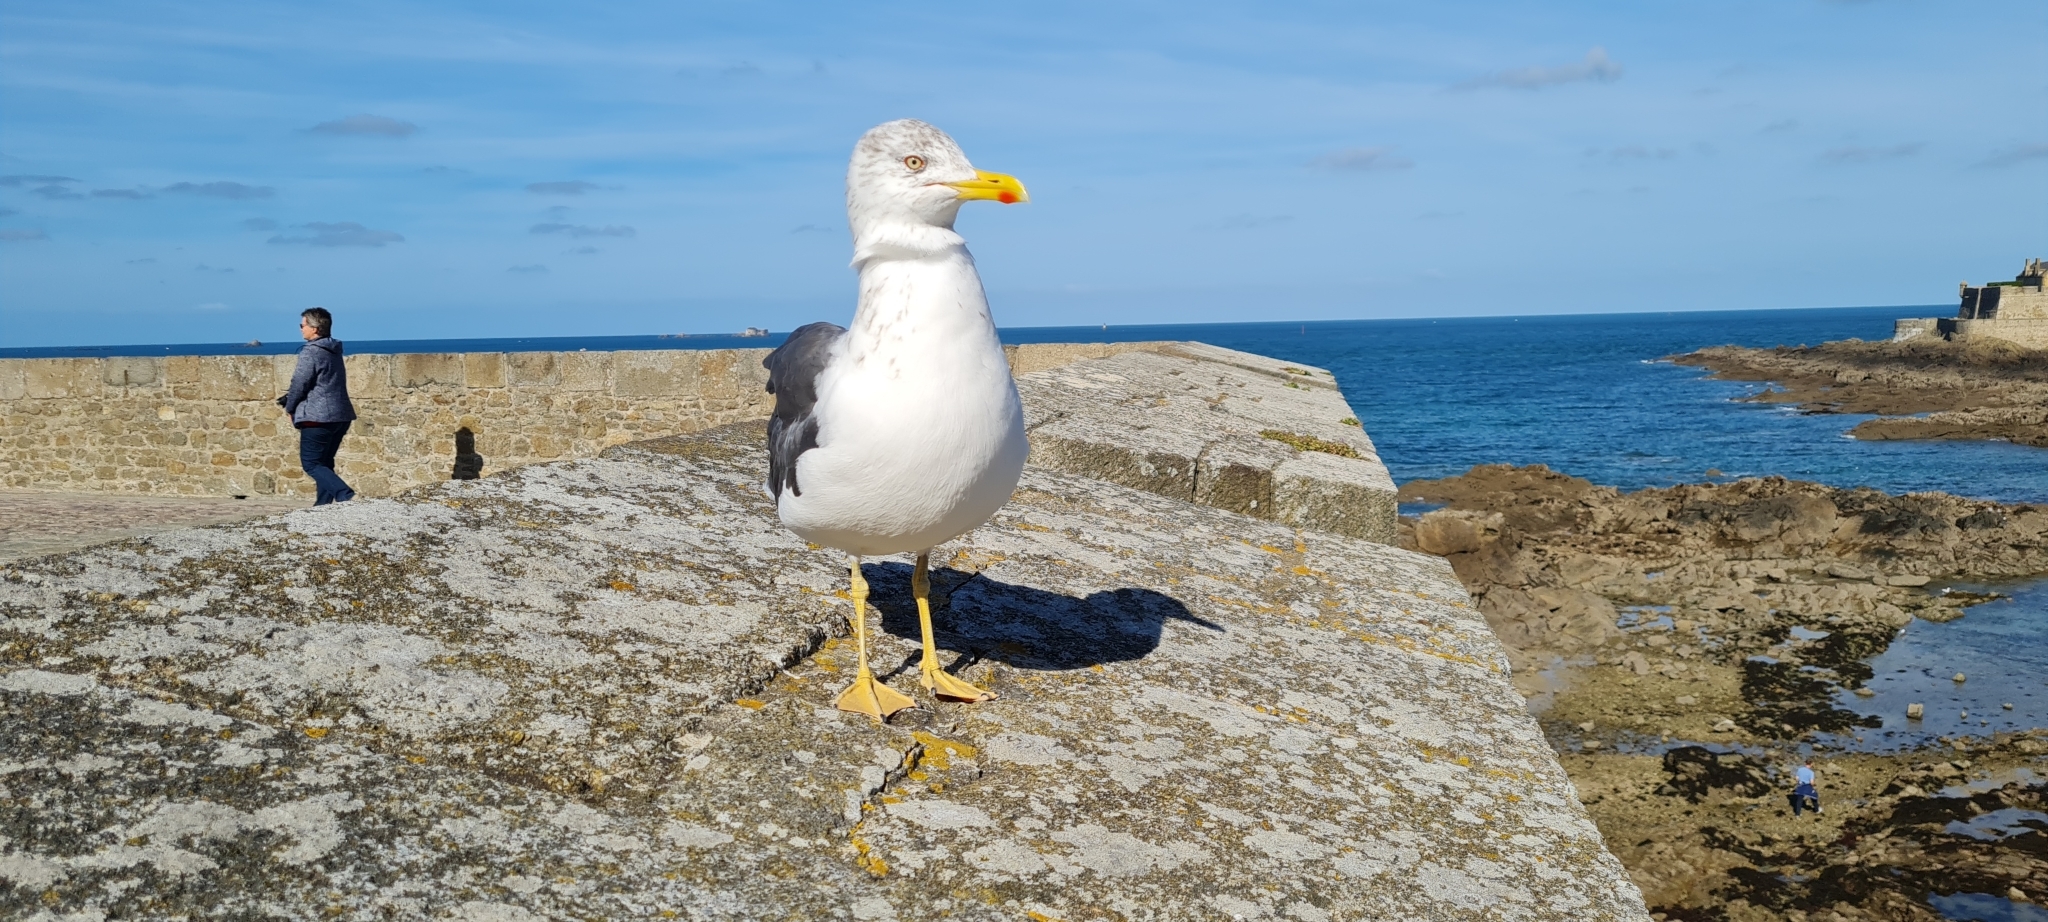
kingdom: Animalia
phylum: Chordata
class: Aves
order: Charadriiformes
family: Laridae
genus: Larus
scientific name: Larus fuscus
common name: Lesser black-backed gull
